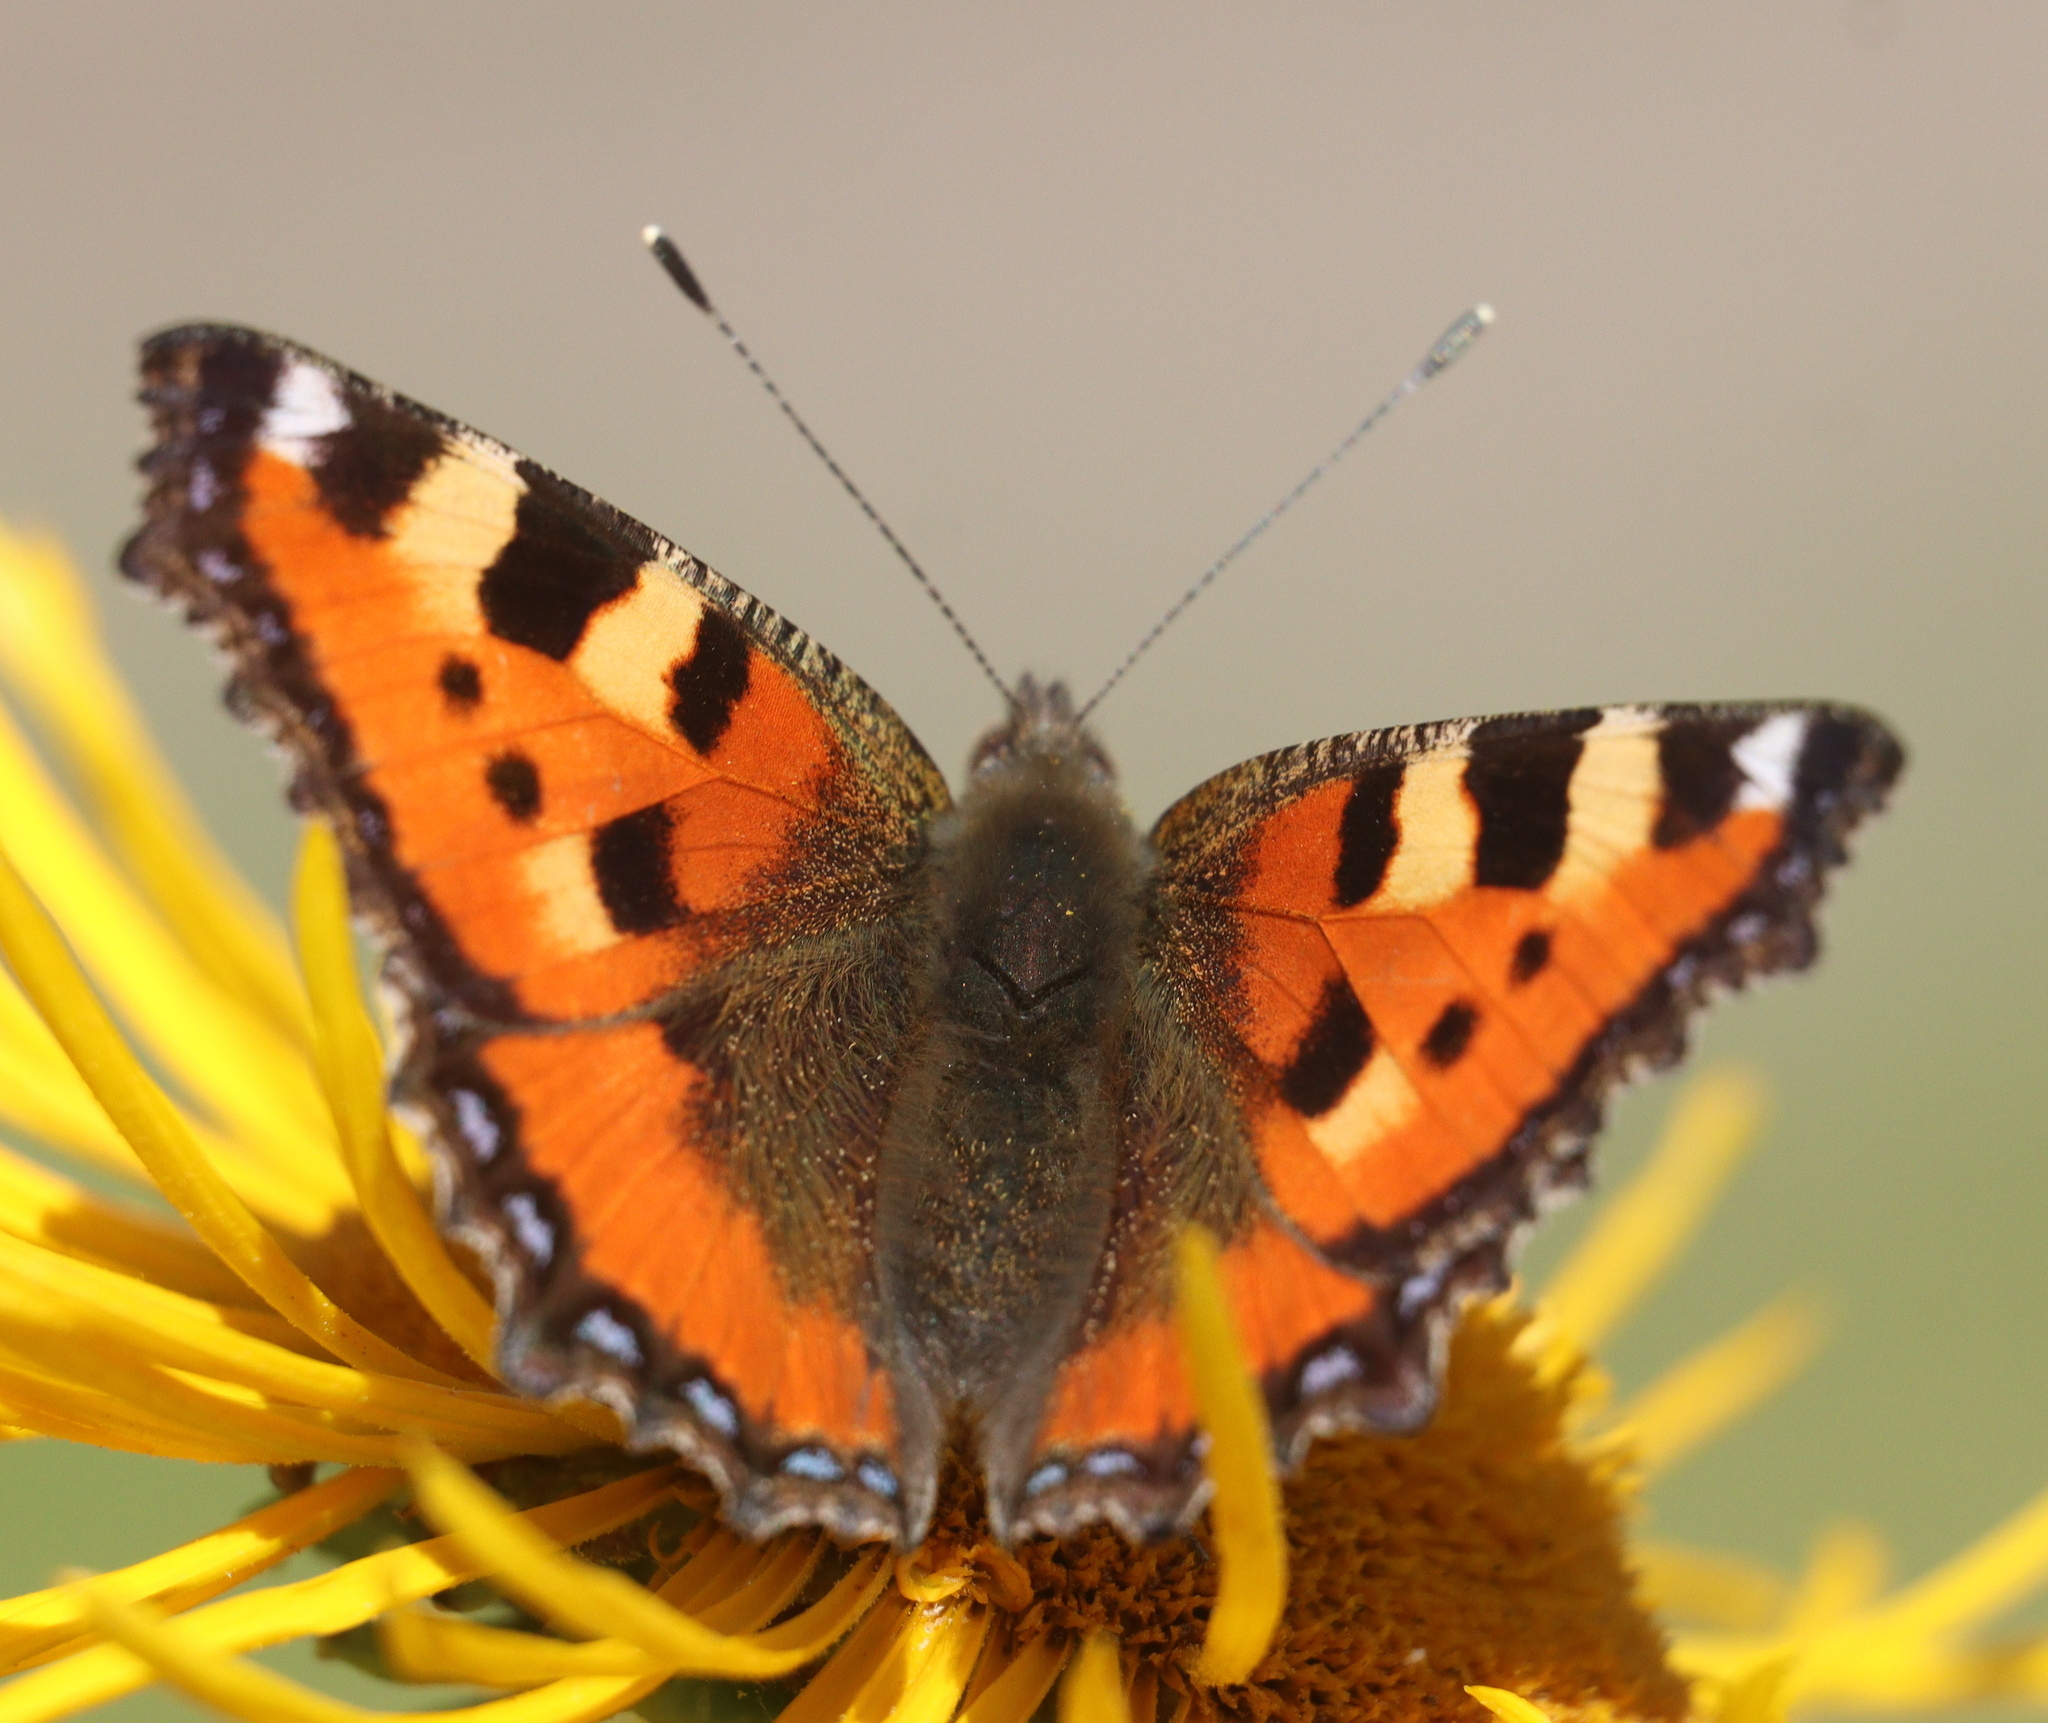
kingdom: Animalia
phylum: Arthropoda
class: Insecta
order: Lepidoptera
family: Nymphalidae
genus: Aglais
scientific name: Aglais urticae
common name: Small tortoiseshell
